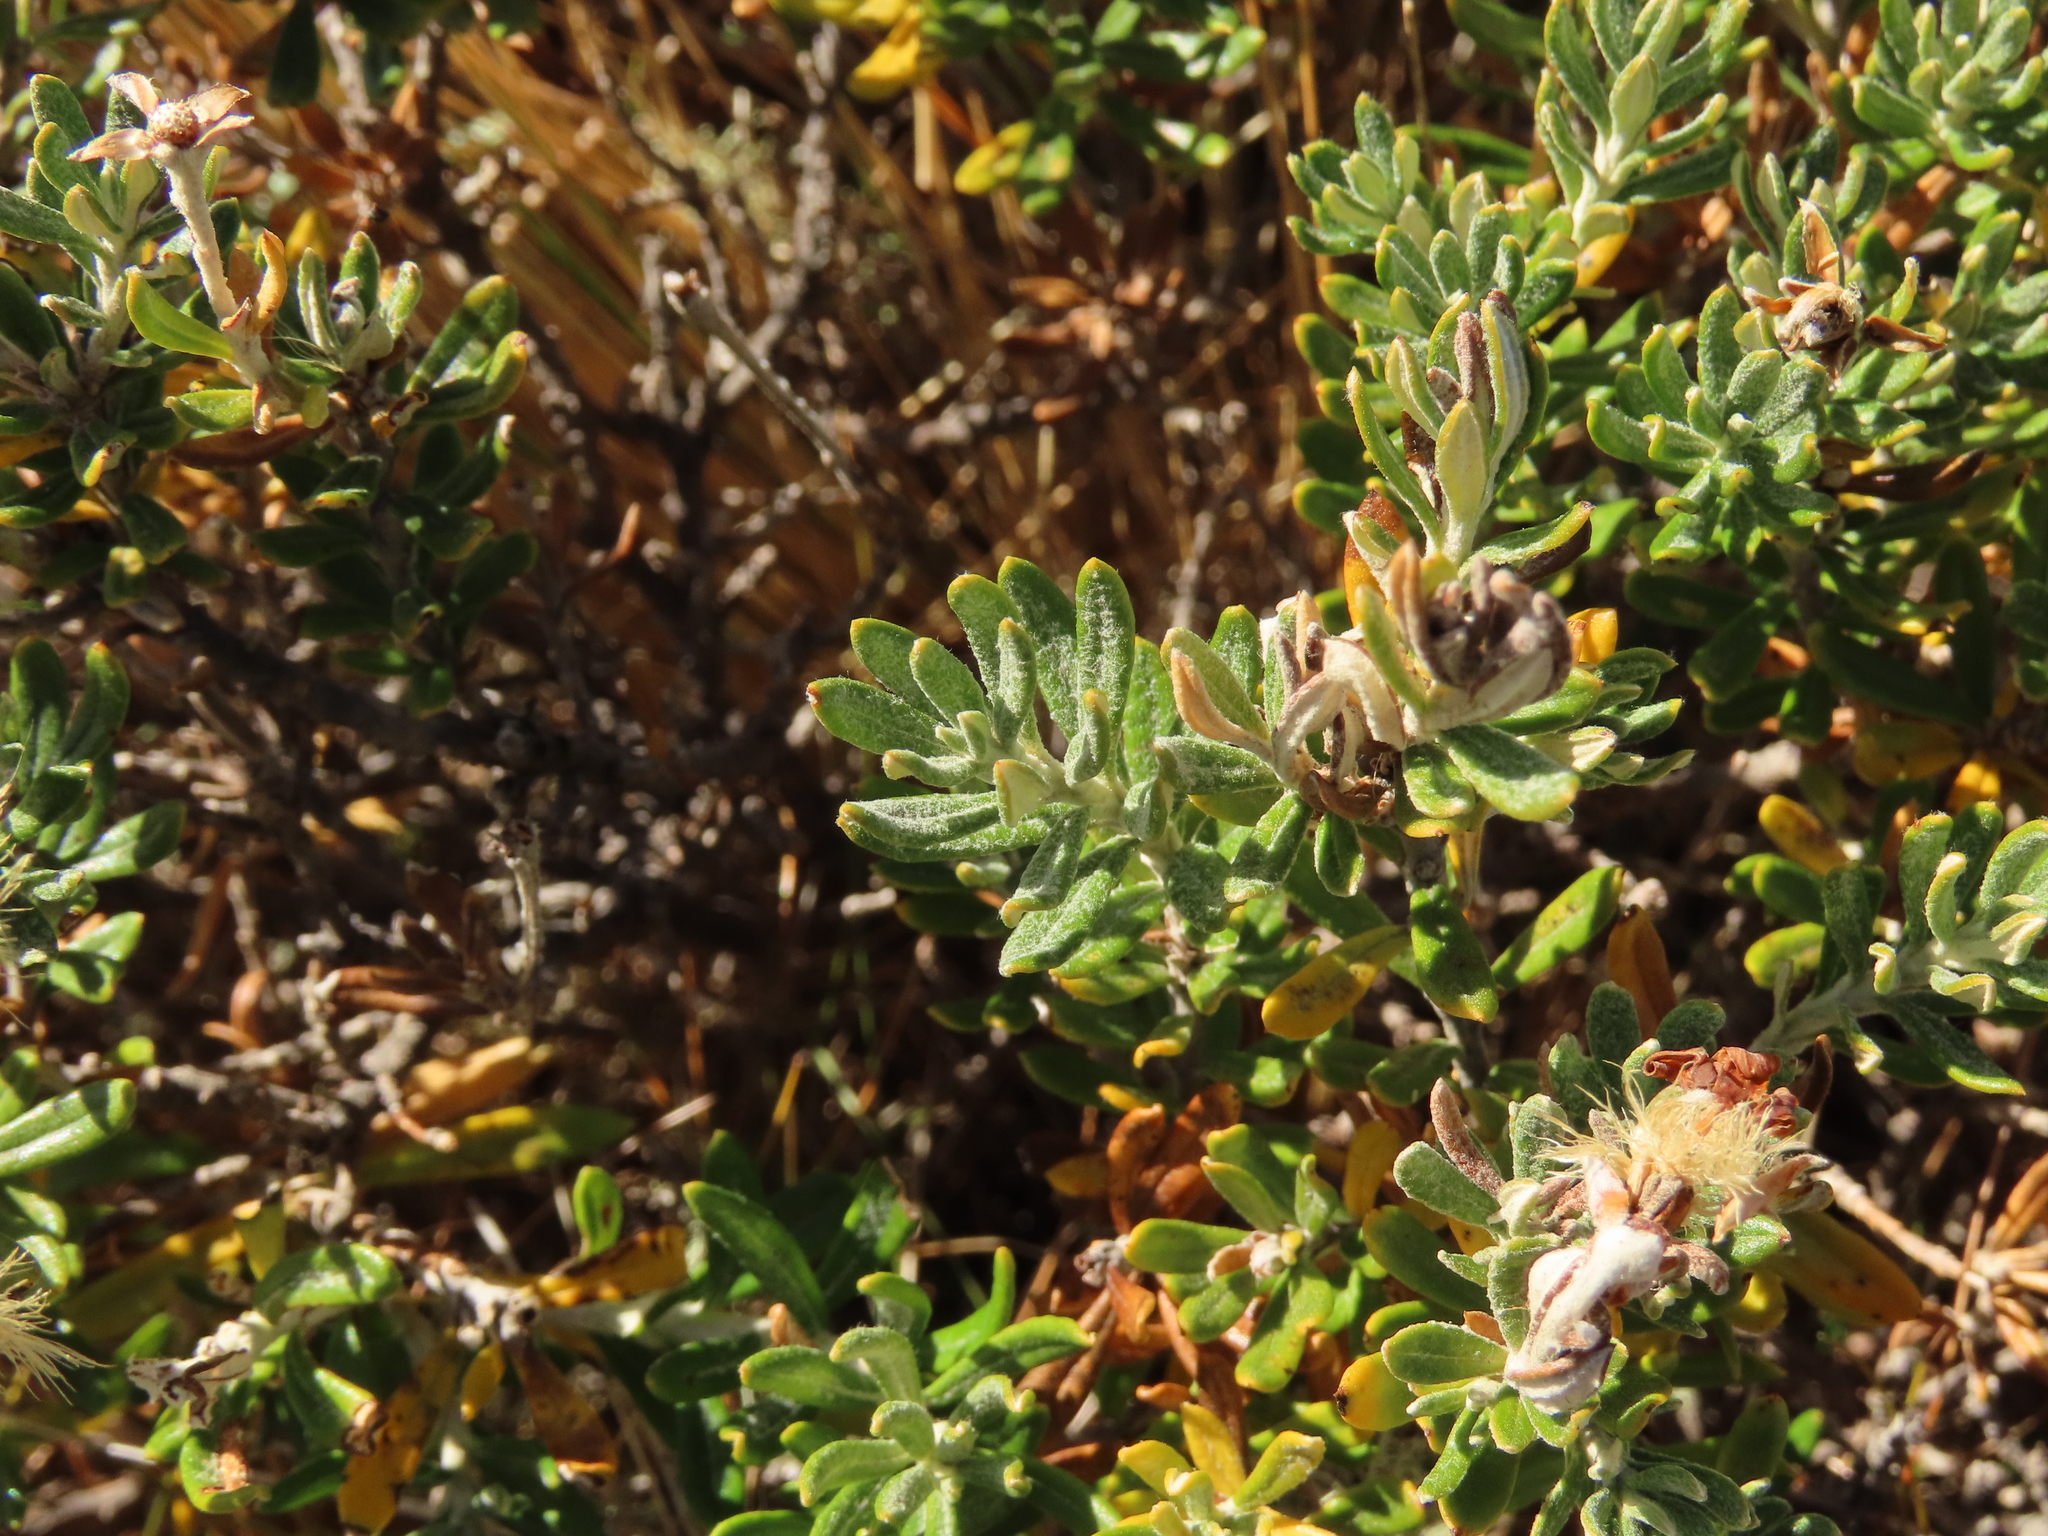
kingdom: Plantae
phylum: Tracheophyta
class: Magnoliopsida
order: Asterales
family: Asteraceae
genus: Chiliotrichum
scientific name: Chiliotrichum diffusum
